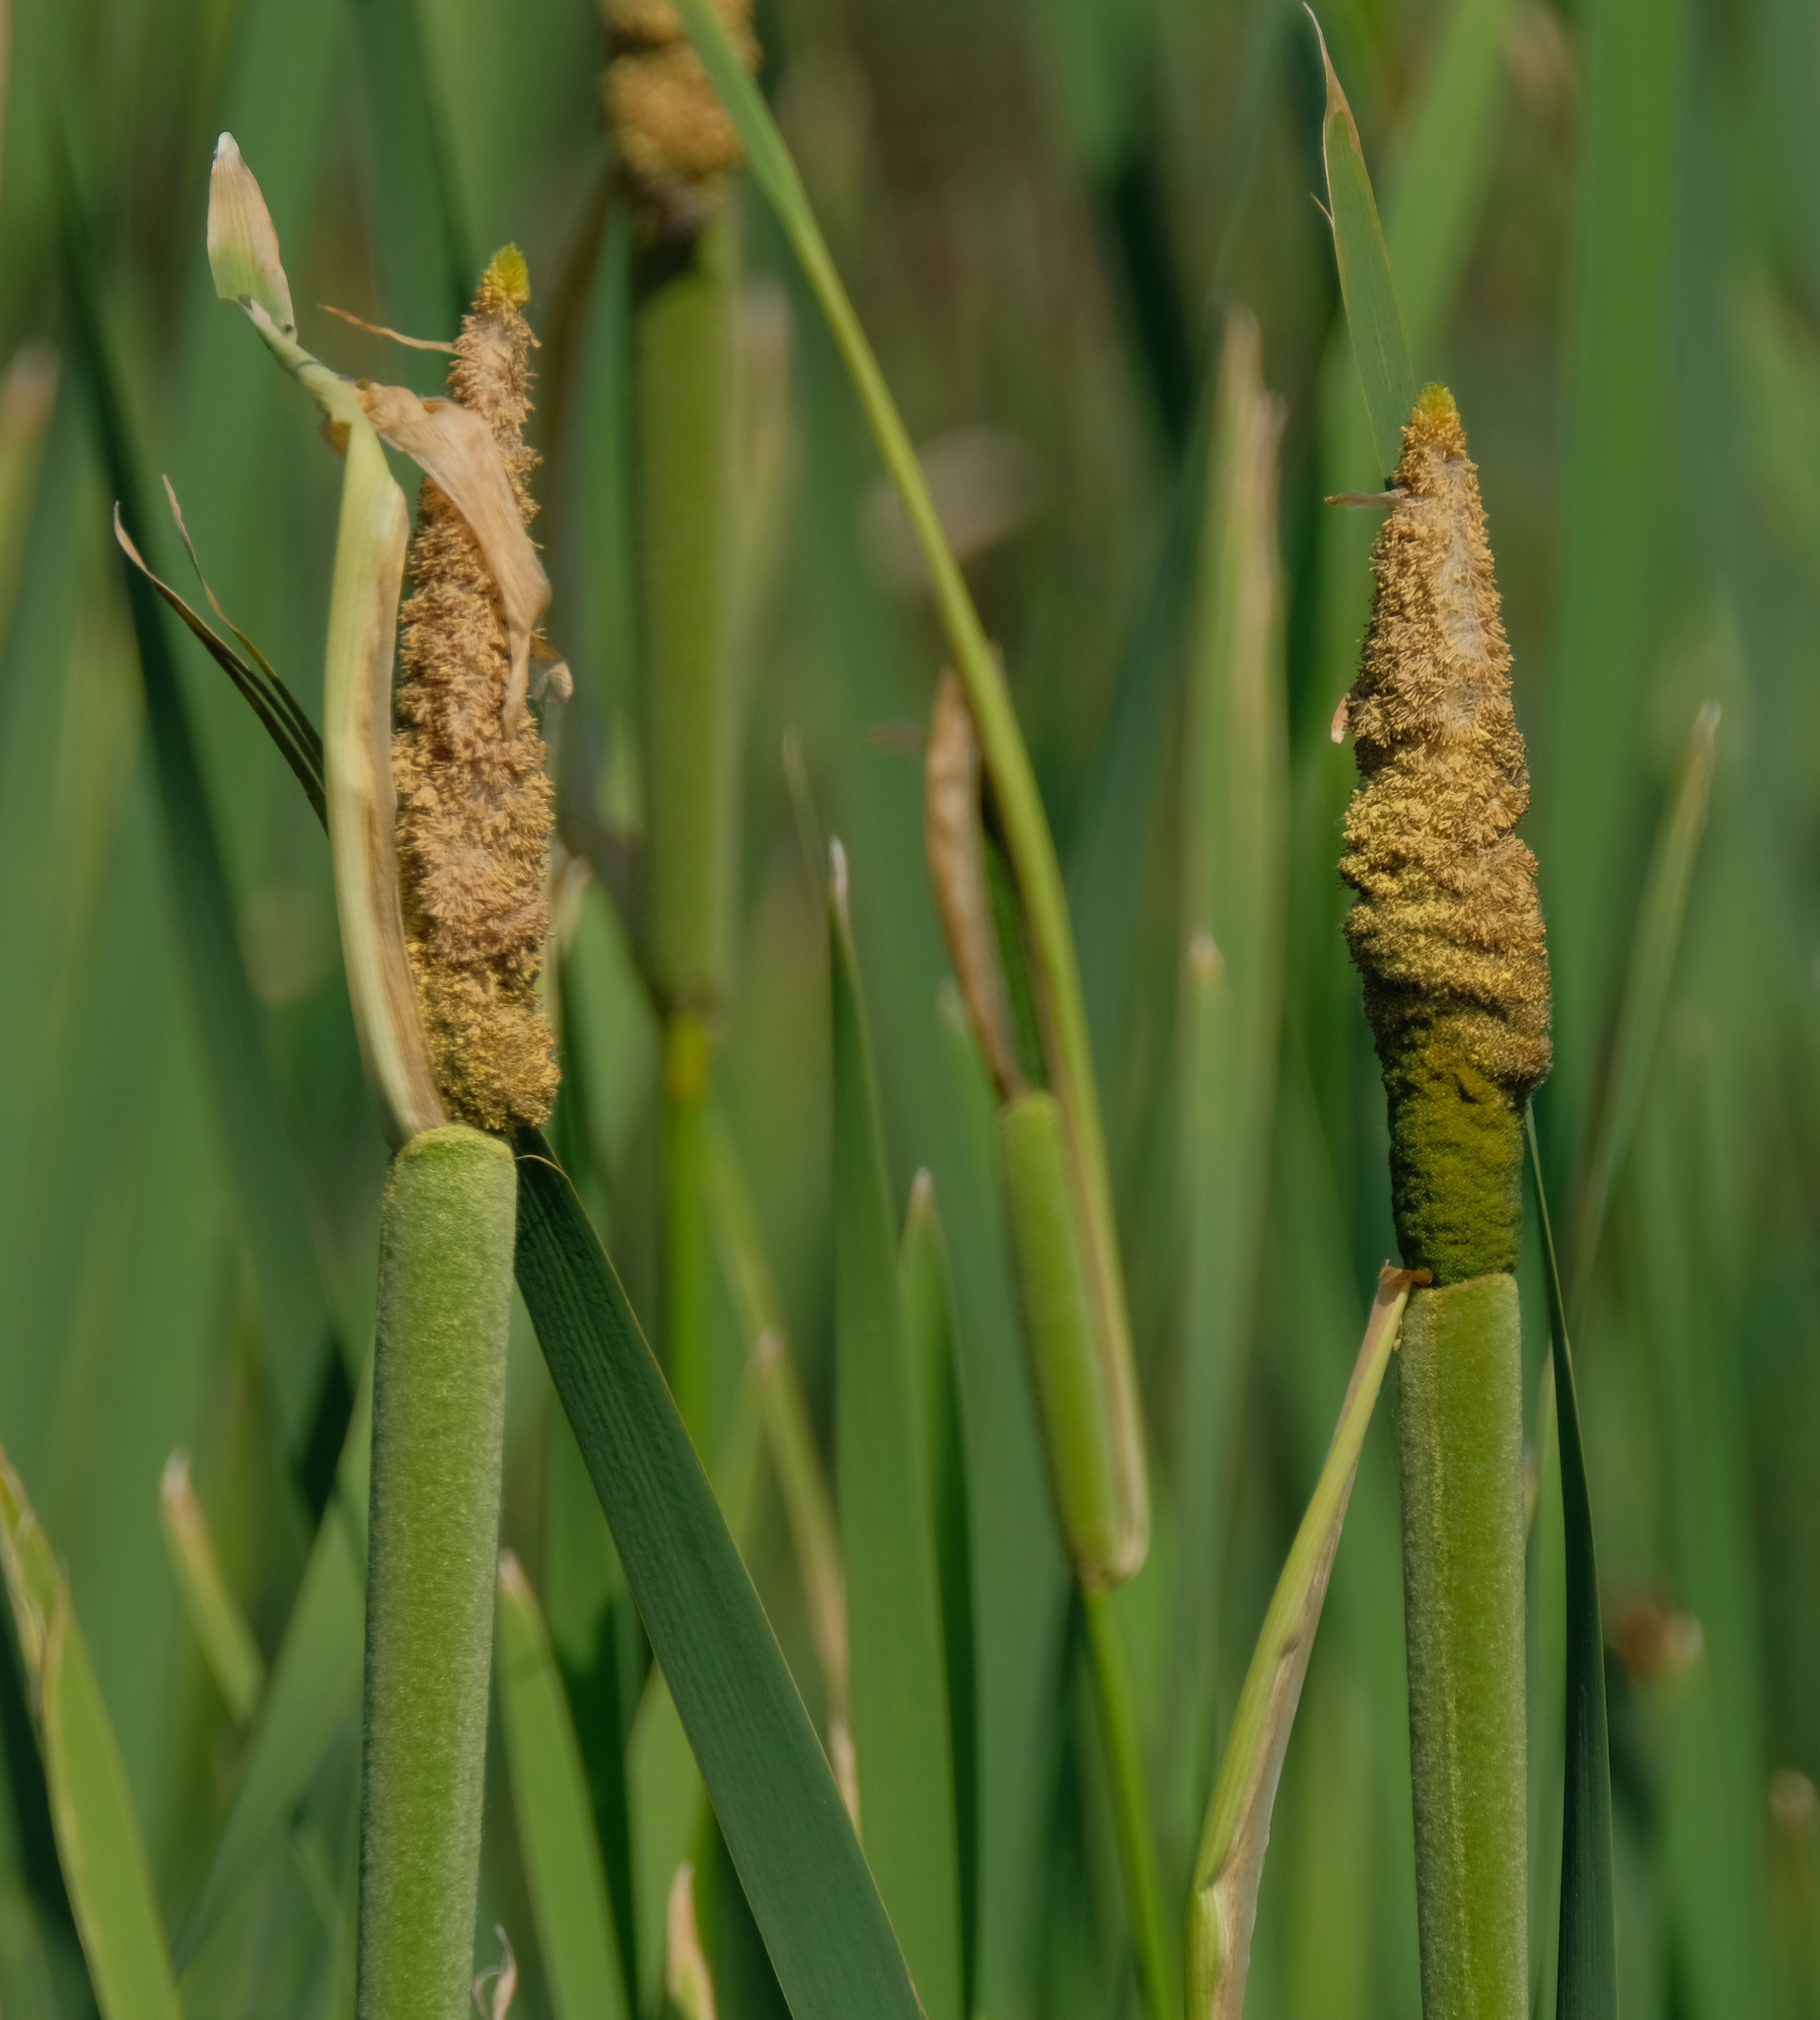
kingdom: Plantae
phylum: Tracheophyta
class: Liliopsida
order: Poales
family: Typhaceae
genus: Typha
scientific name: Typha latifolia
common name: Broadleaf cattail
